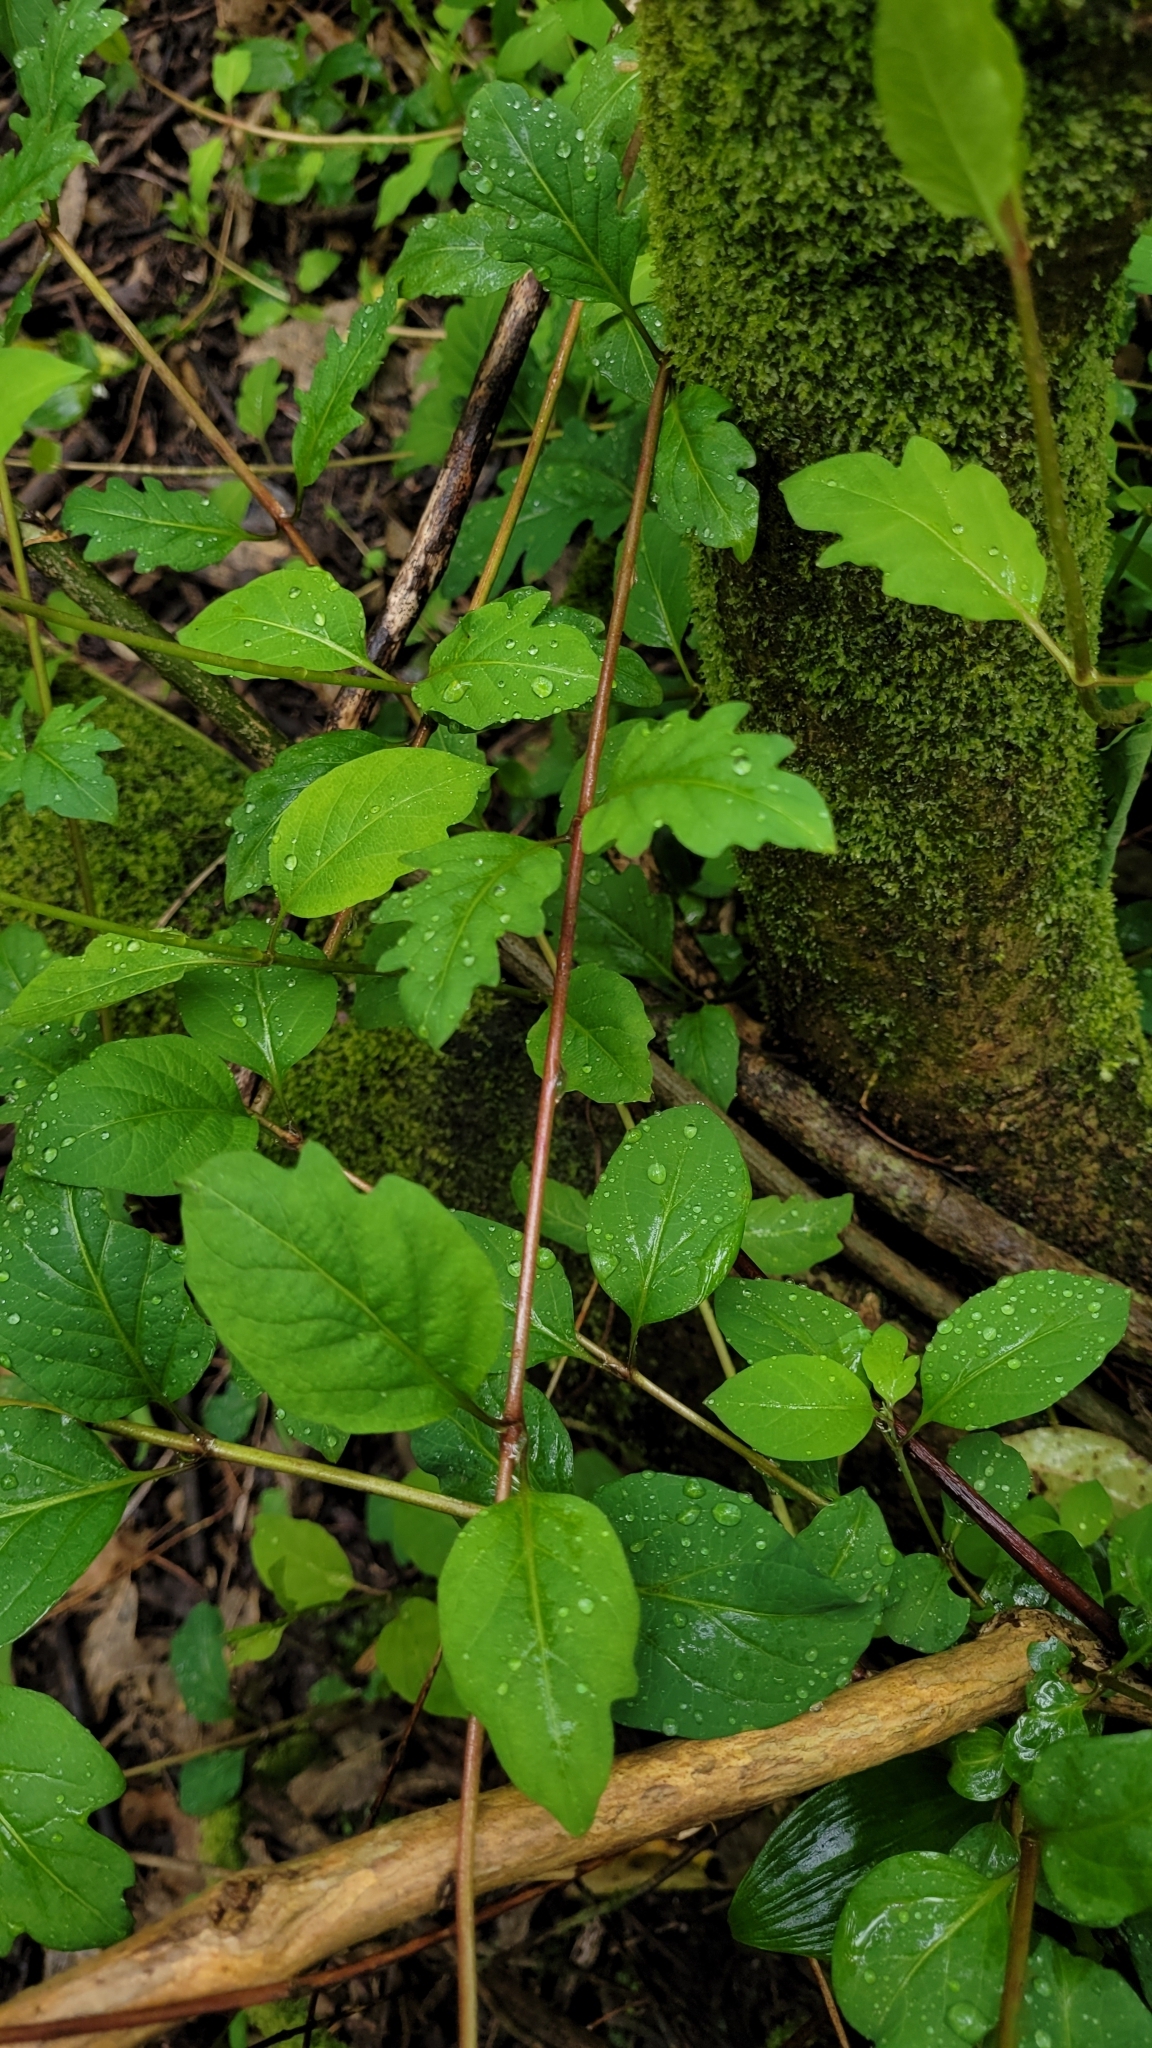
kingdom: Plantae
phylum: Tracheophyta
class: Magnoliopsida
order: Dipsacales
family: Caprifoliaceae
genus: Lonicera
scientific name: Lonicera japonica
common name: Japanese honeysuckle
